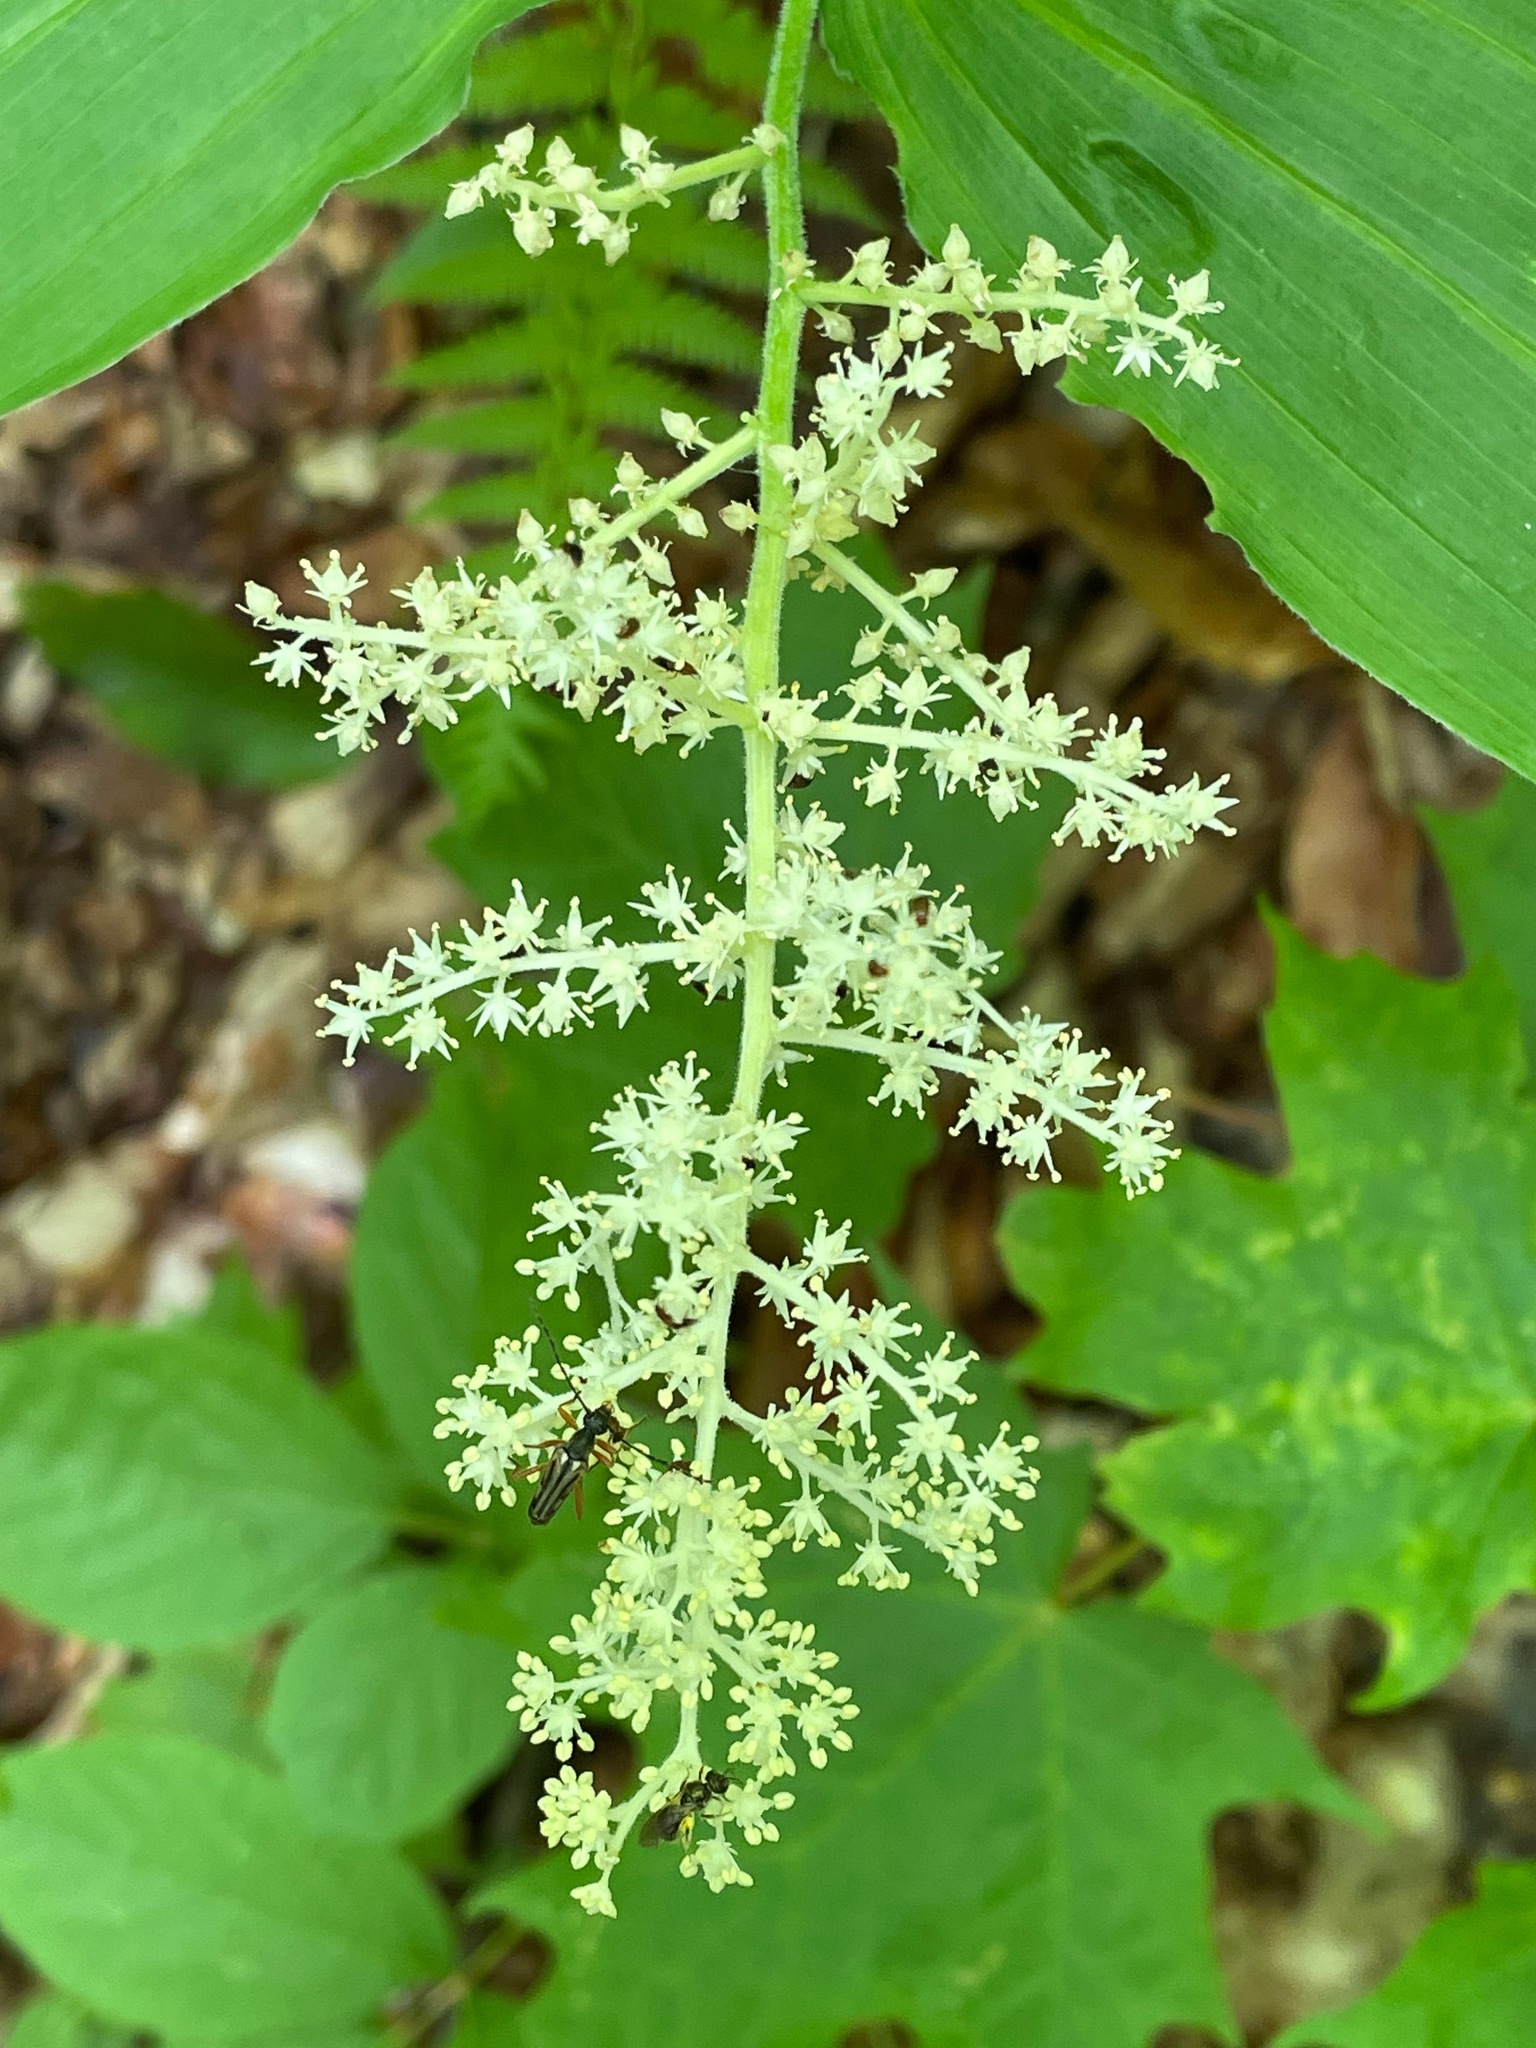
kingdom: Plantae
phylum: Tracheophyta
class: Liliopsida
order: Asparagales
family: Asparagaceae
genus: Maianthemum
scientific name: Maianthemum racemosum
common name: False spikenard
